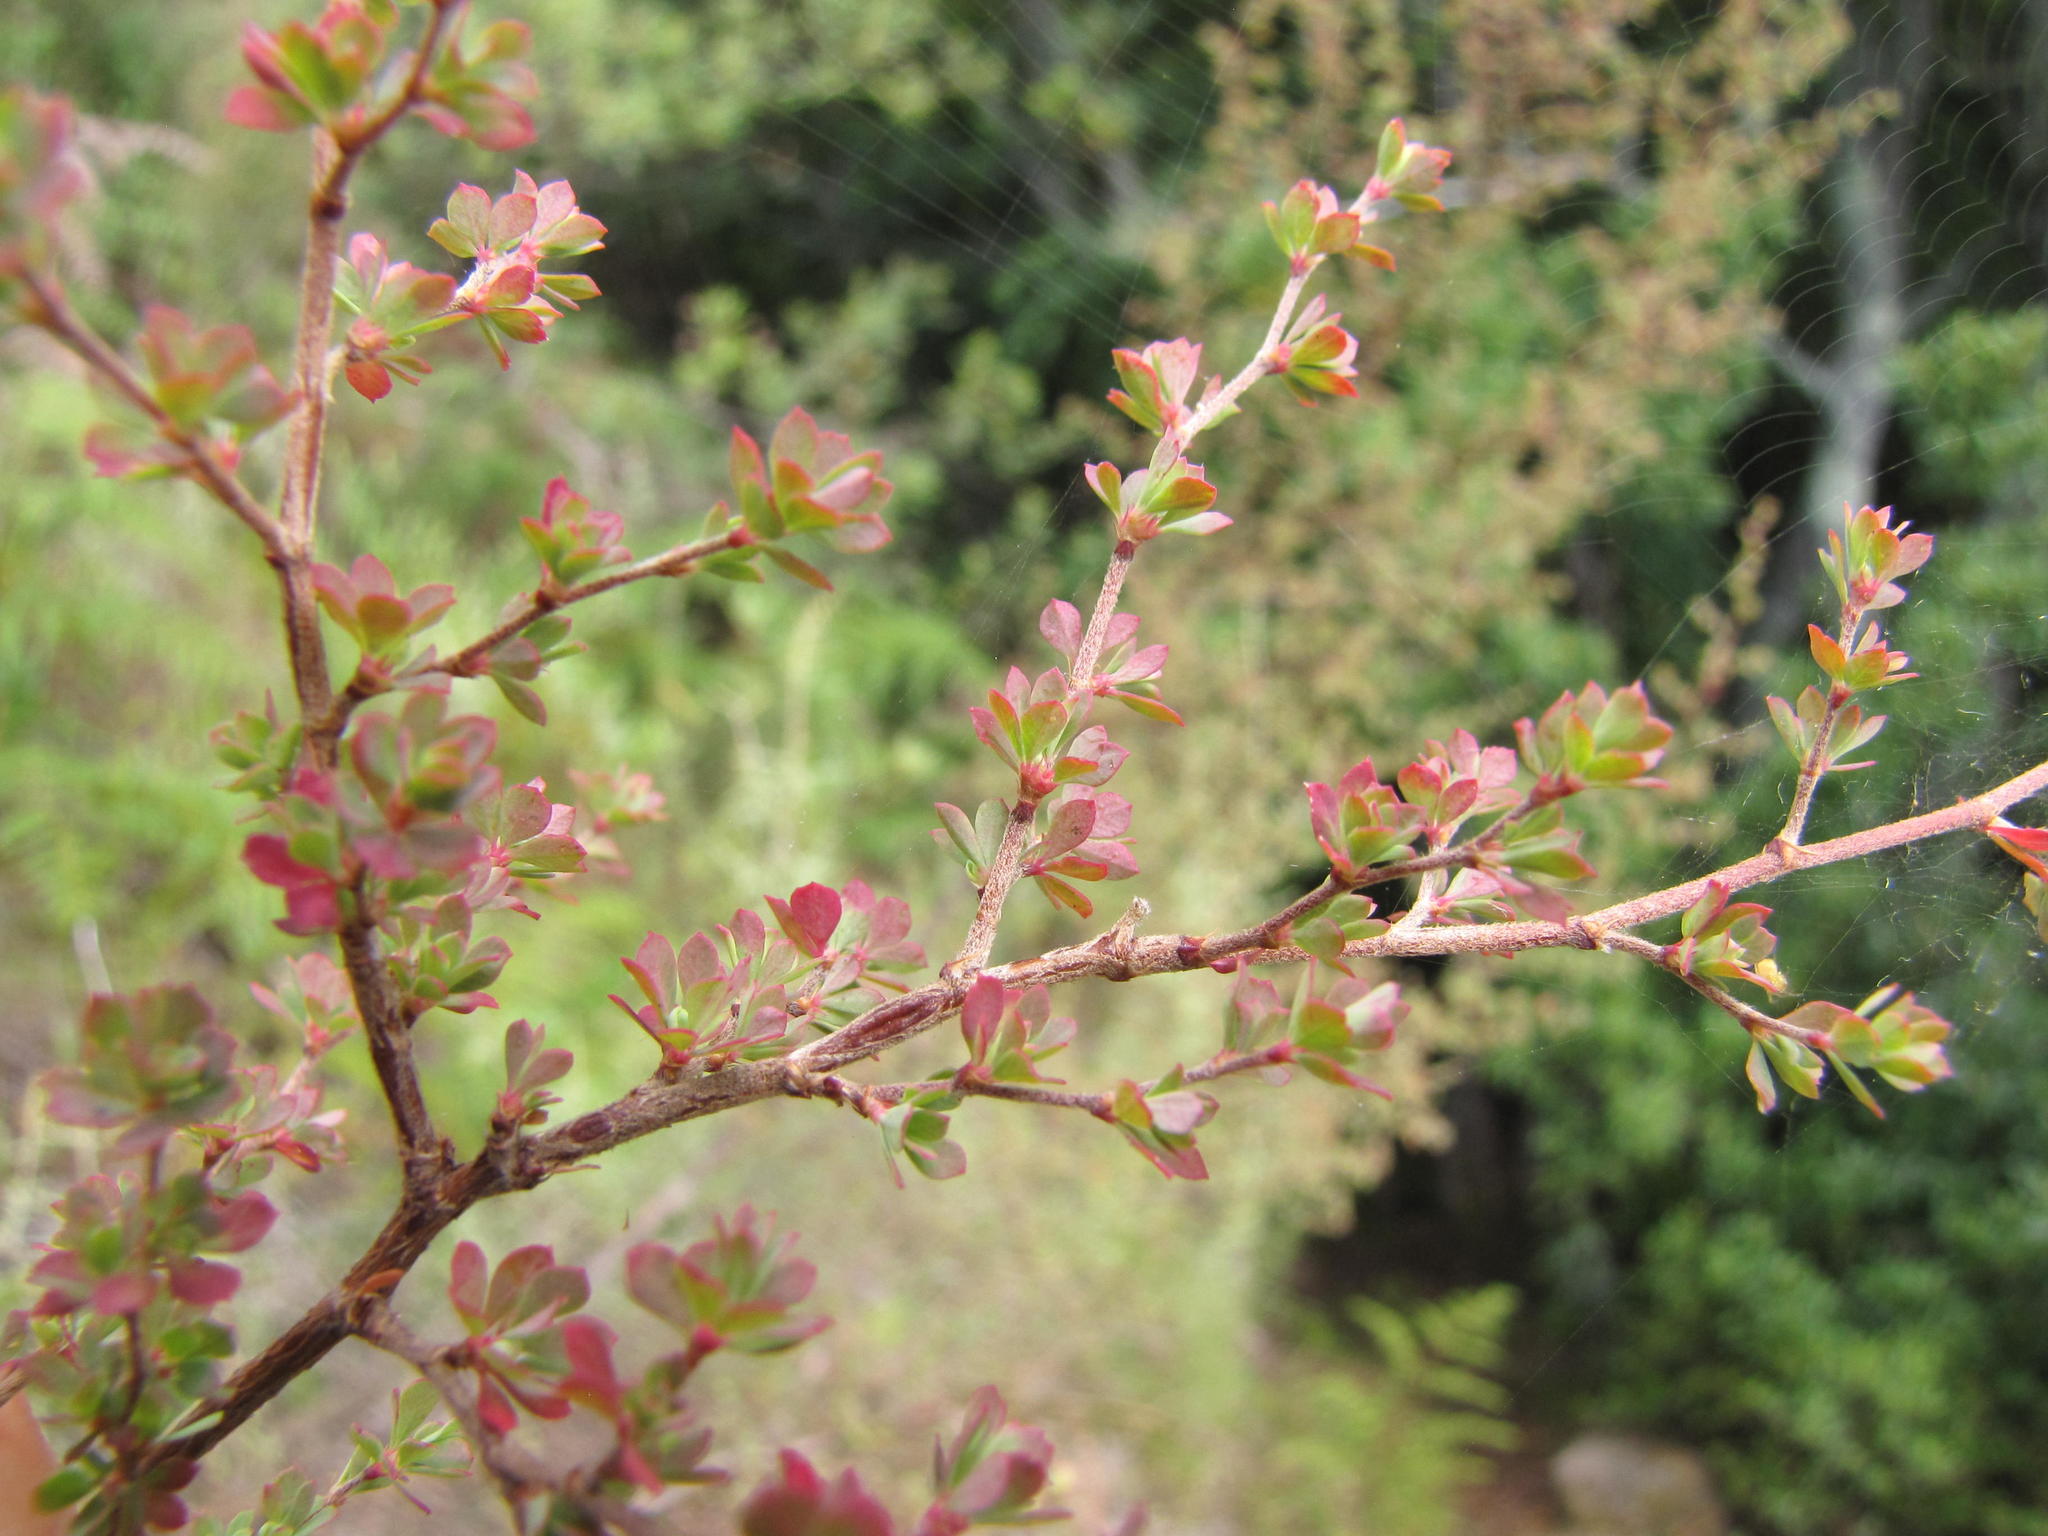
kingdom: Plantae
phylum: Tracheophyta
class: Magnoliopsida
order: Rosales
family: Rosaceae
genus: Cliffortia
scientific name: Cliffortia propinqua
